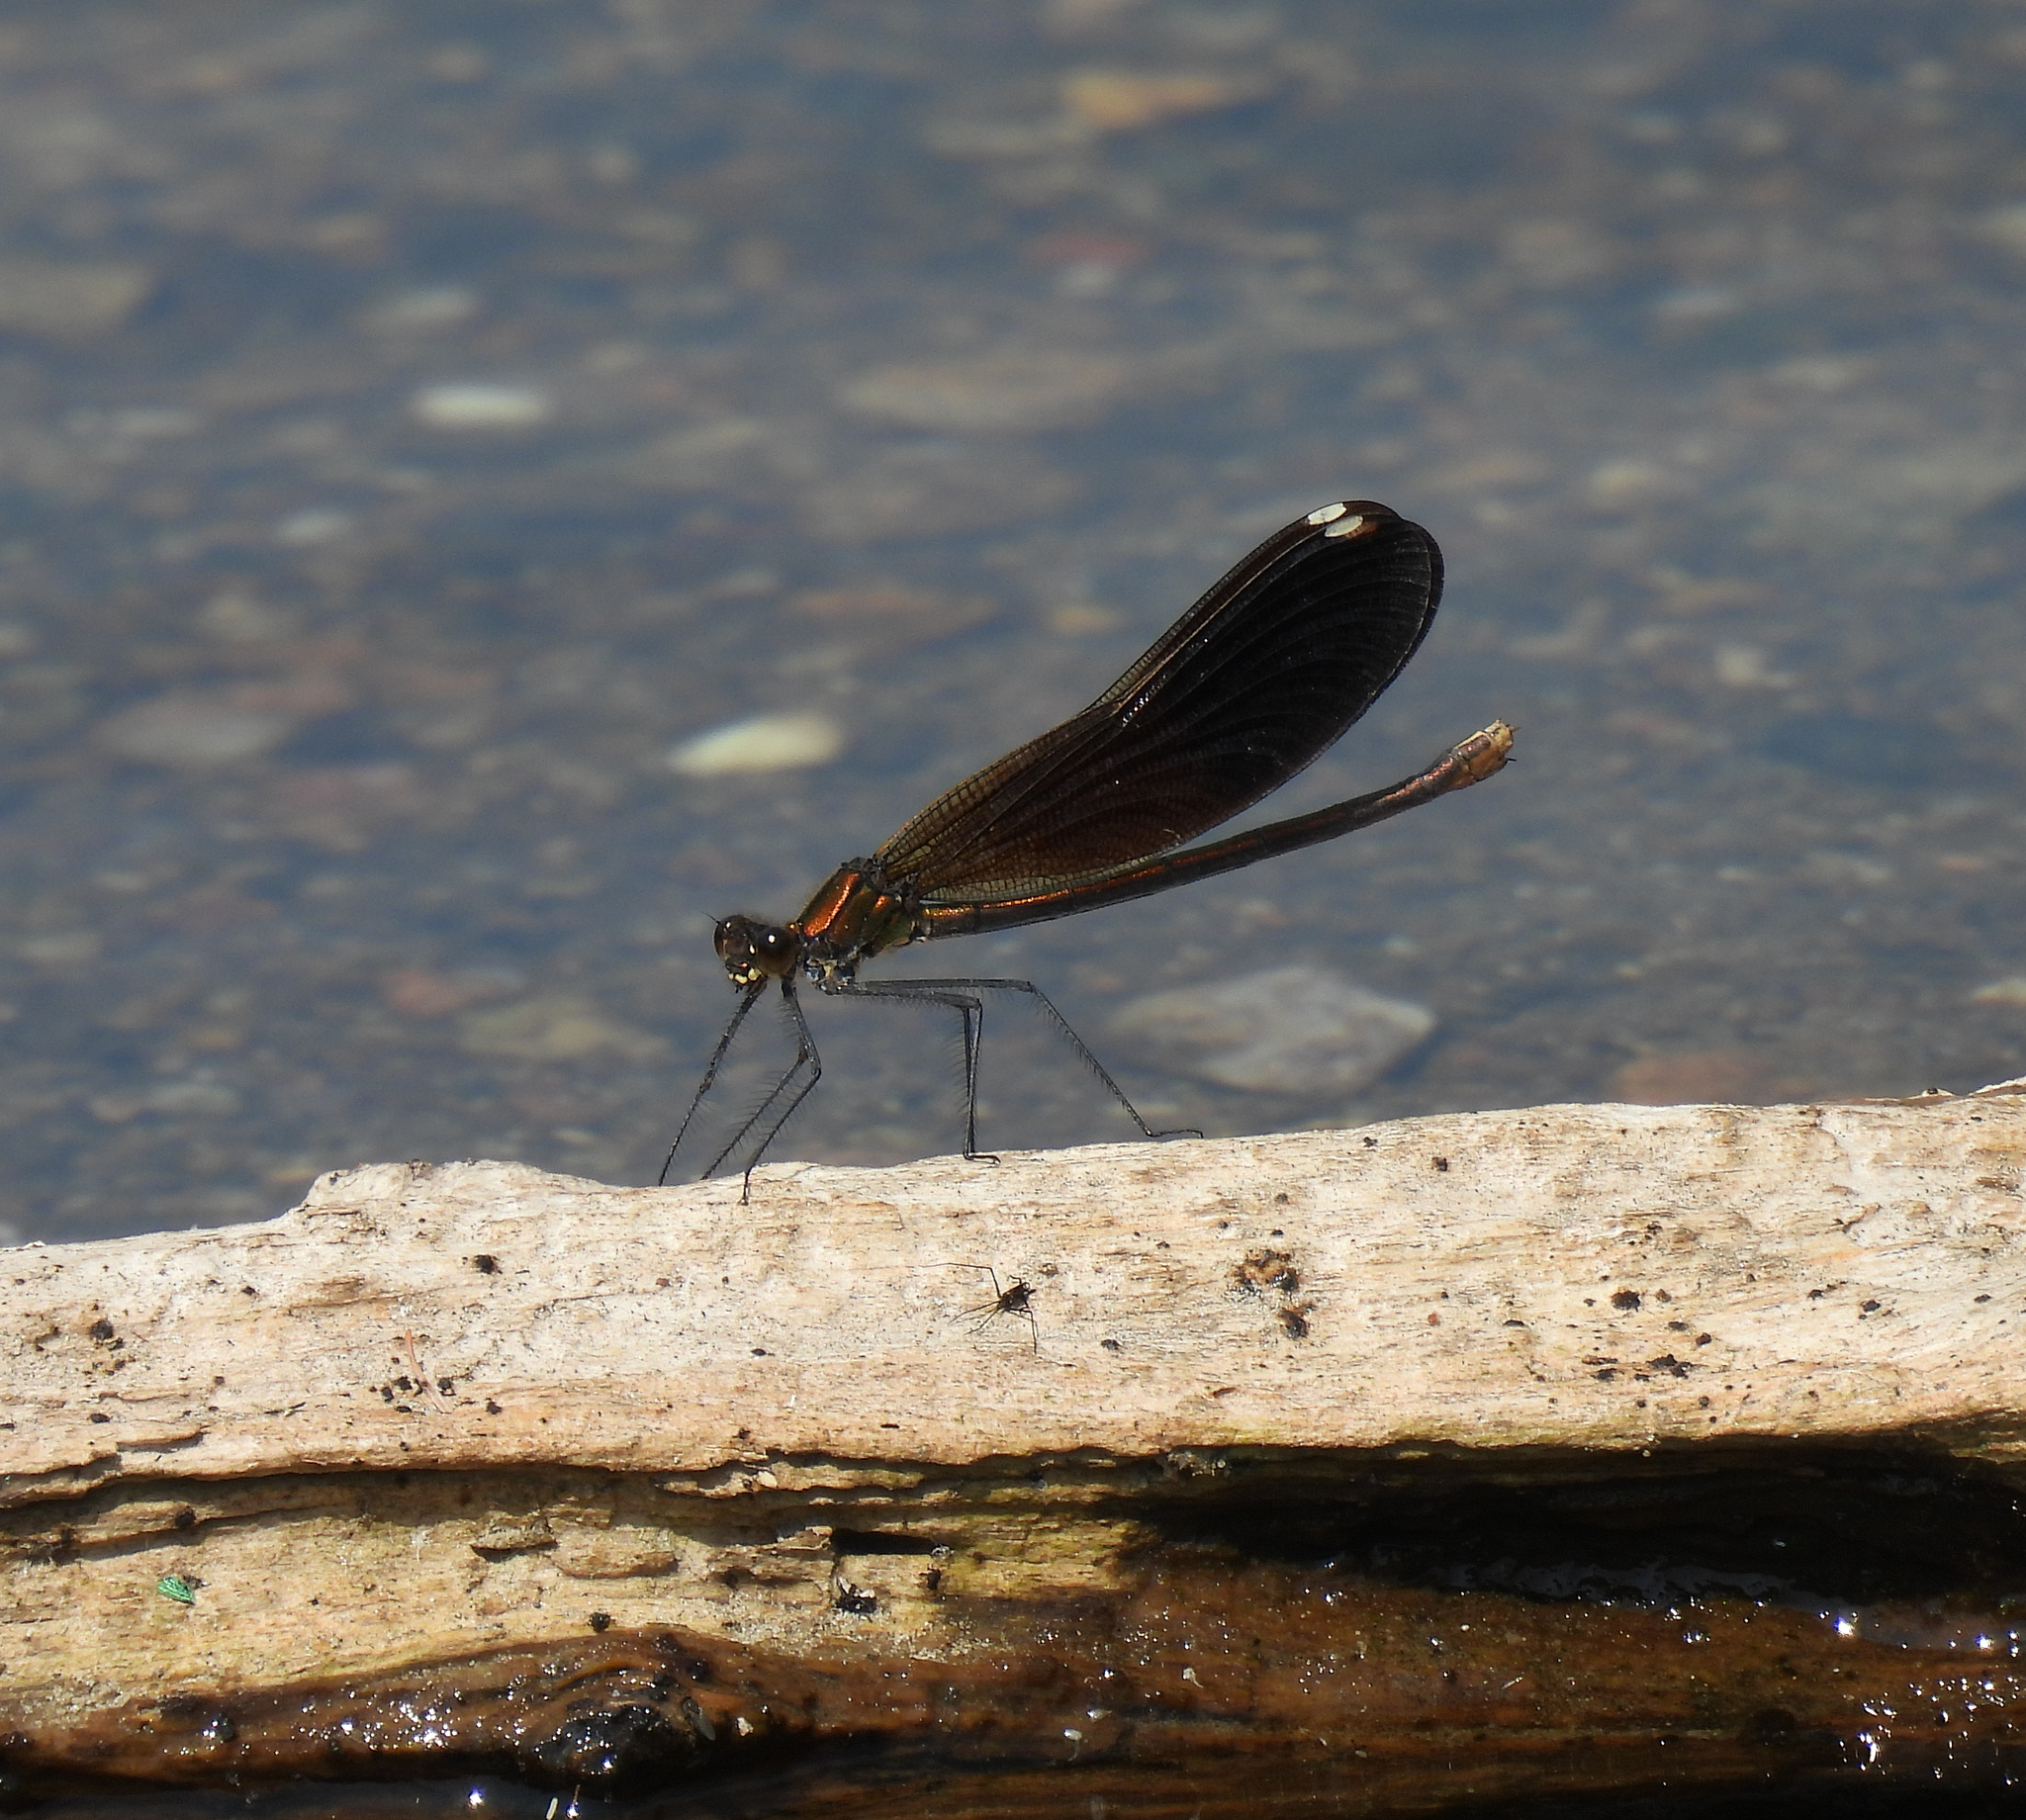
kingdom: Animalia
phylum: Arthropoda
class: Insecta
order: Odonata
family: Calopterygidae
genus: Calopteryx
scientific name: Calopteryx aequabilis
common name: River jewelwing
